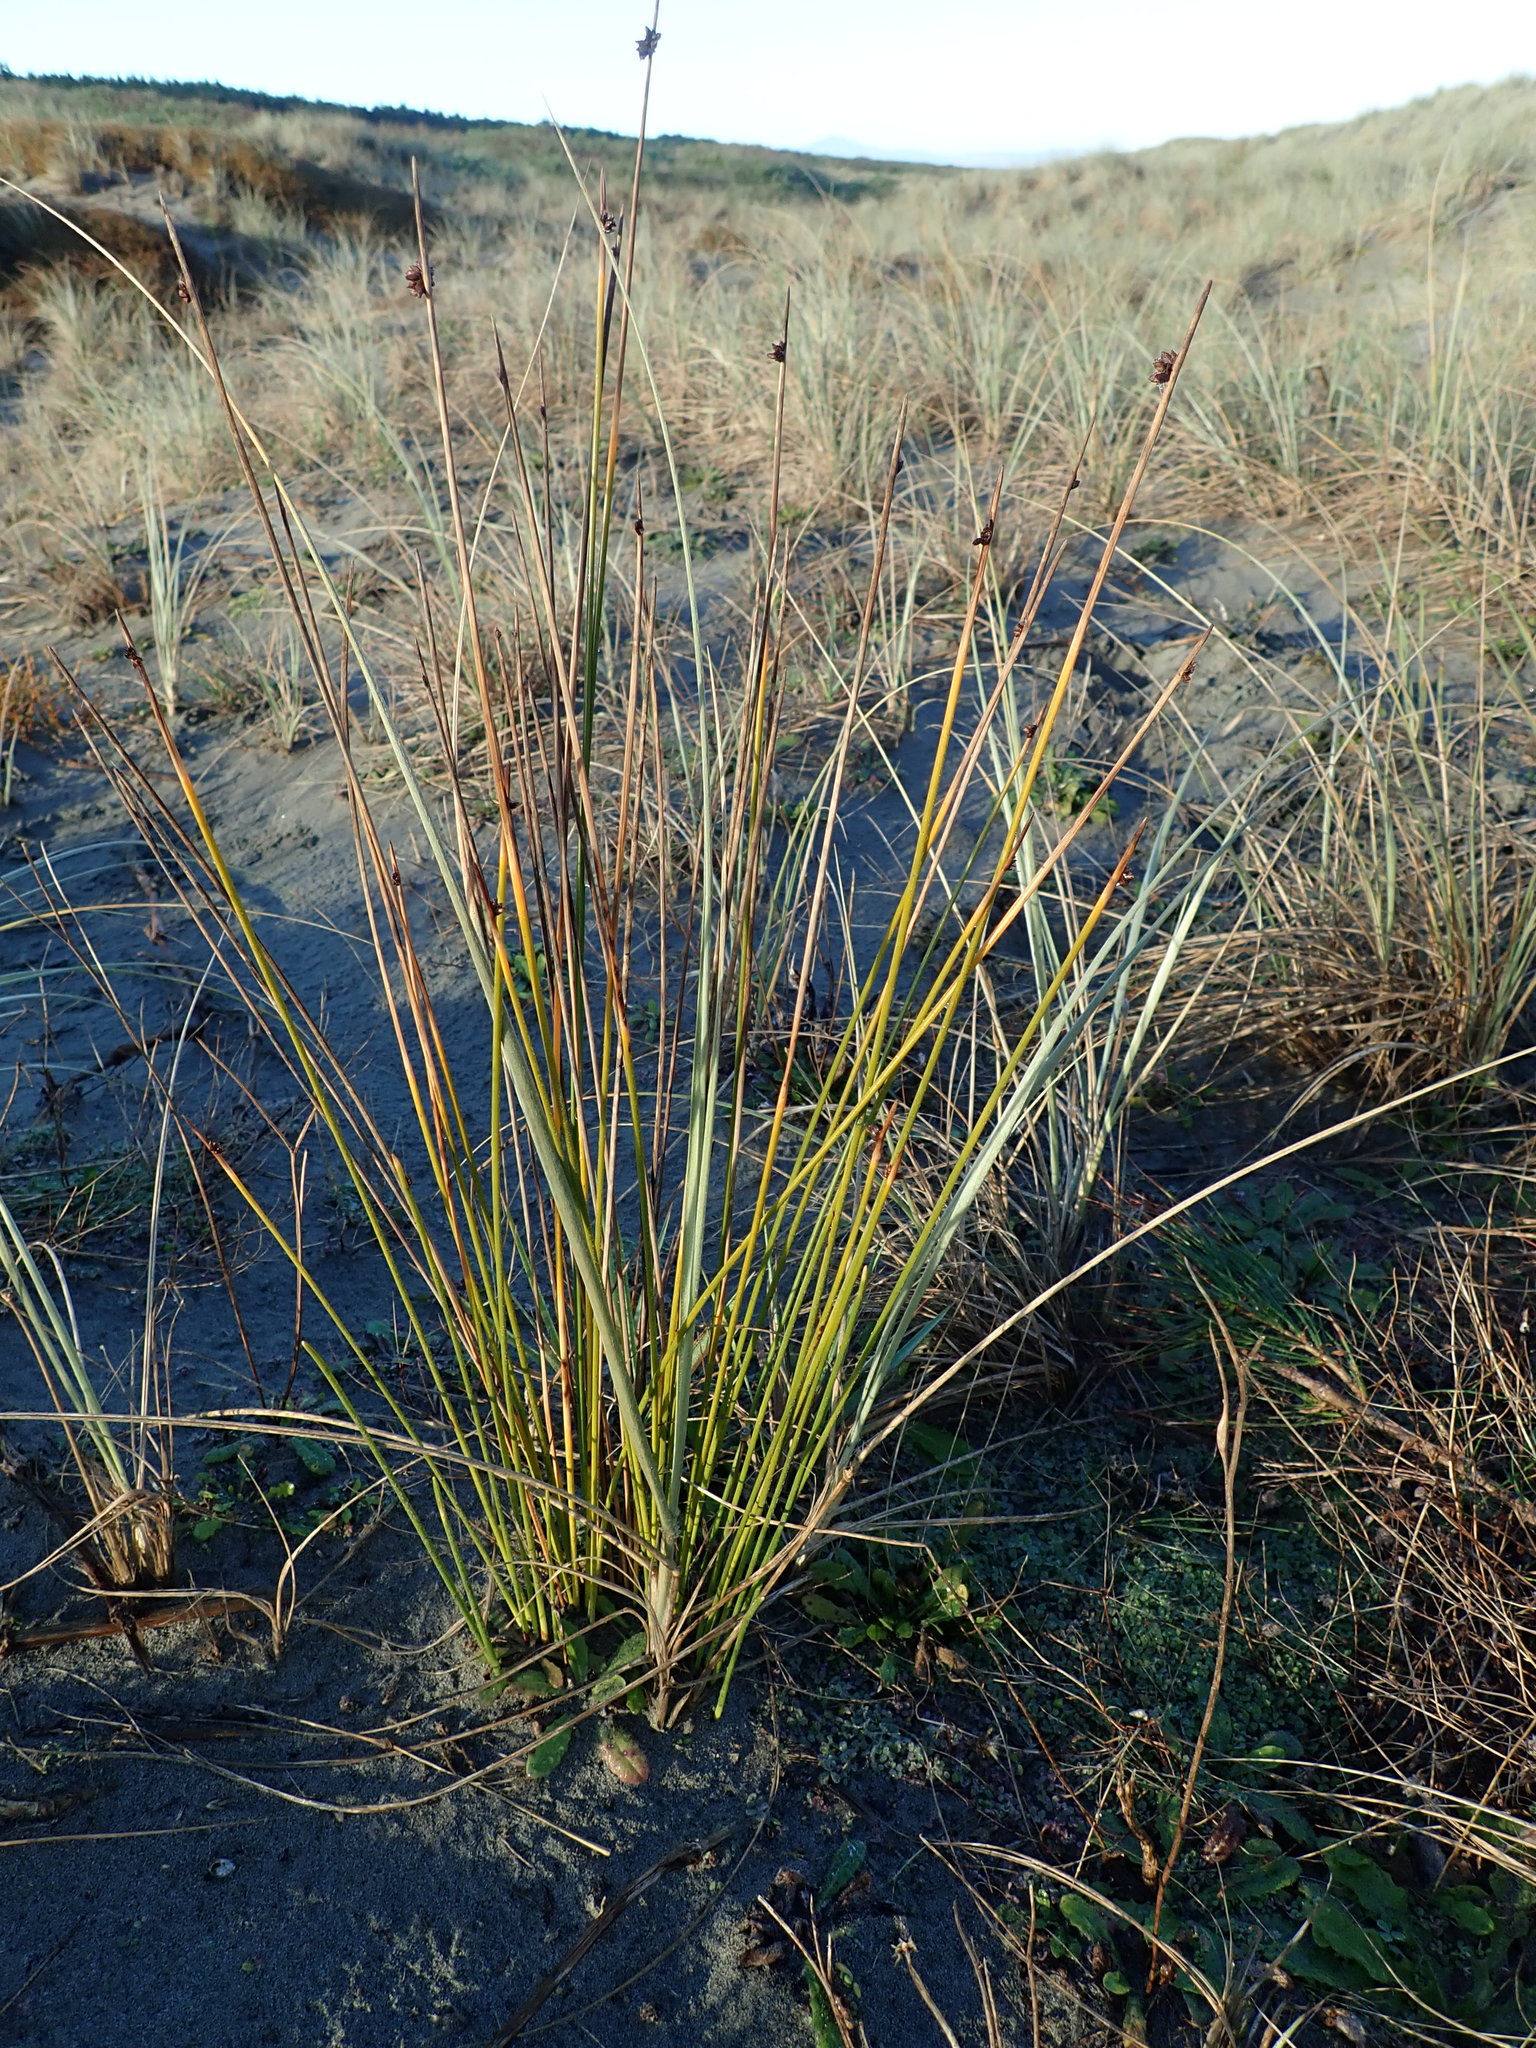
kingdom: Plantae
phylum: Tracheophyta
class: Liliopsida
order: Poales
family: Cyperaceae
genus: Ficinia
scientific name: Ficinia nodosa
